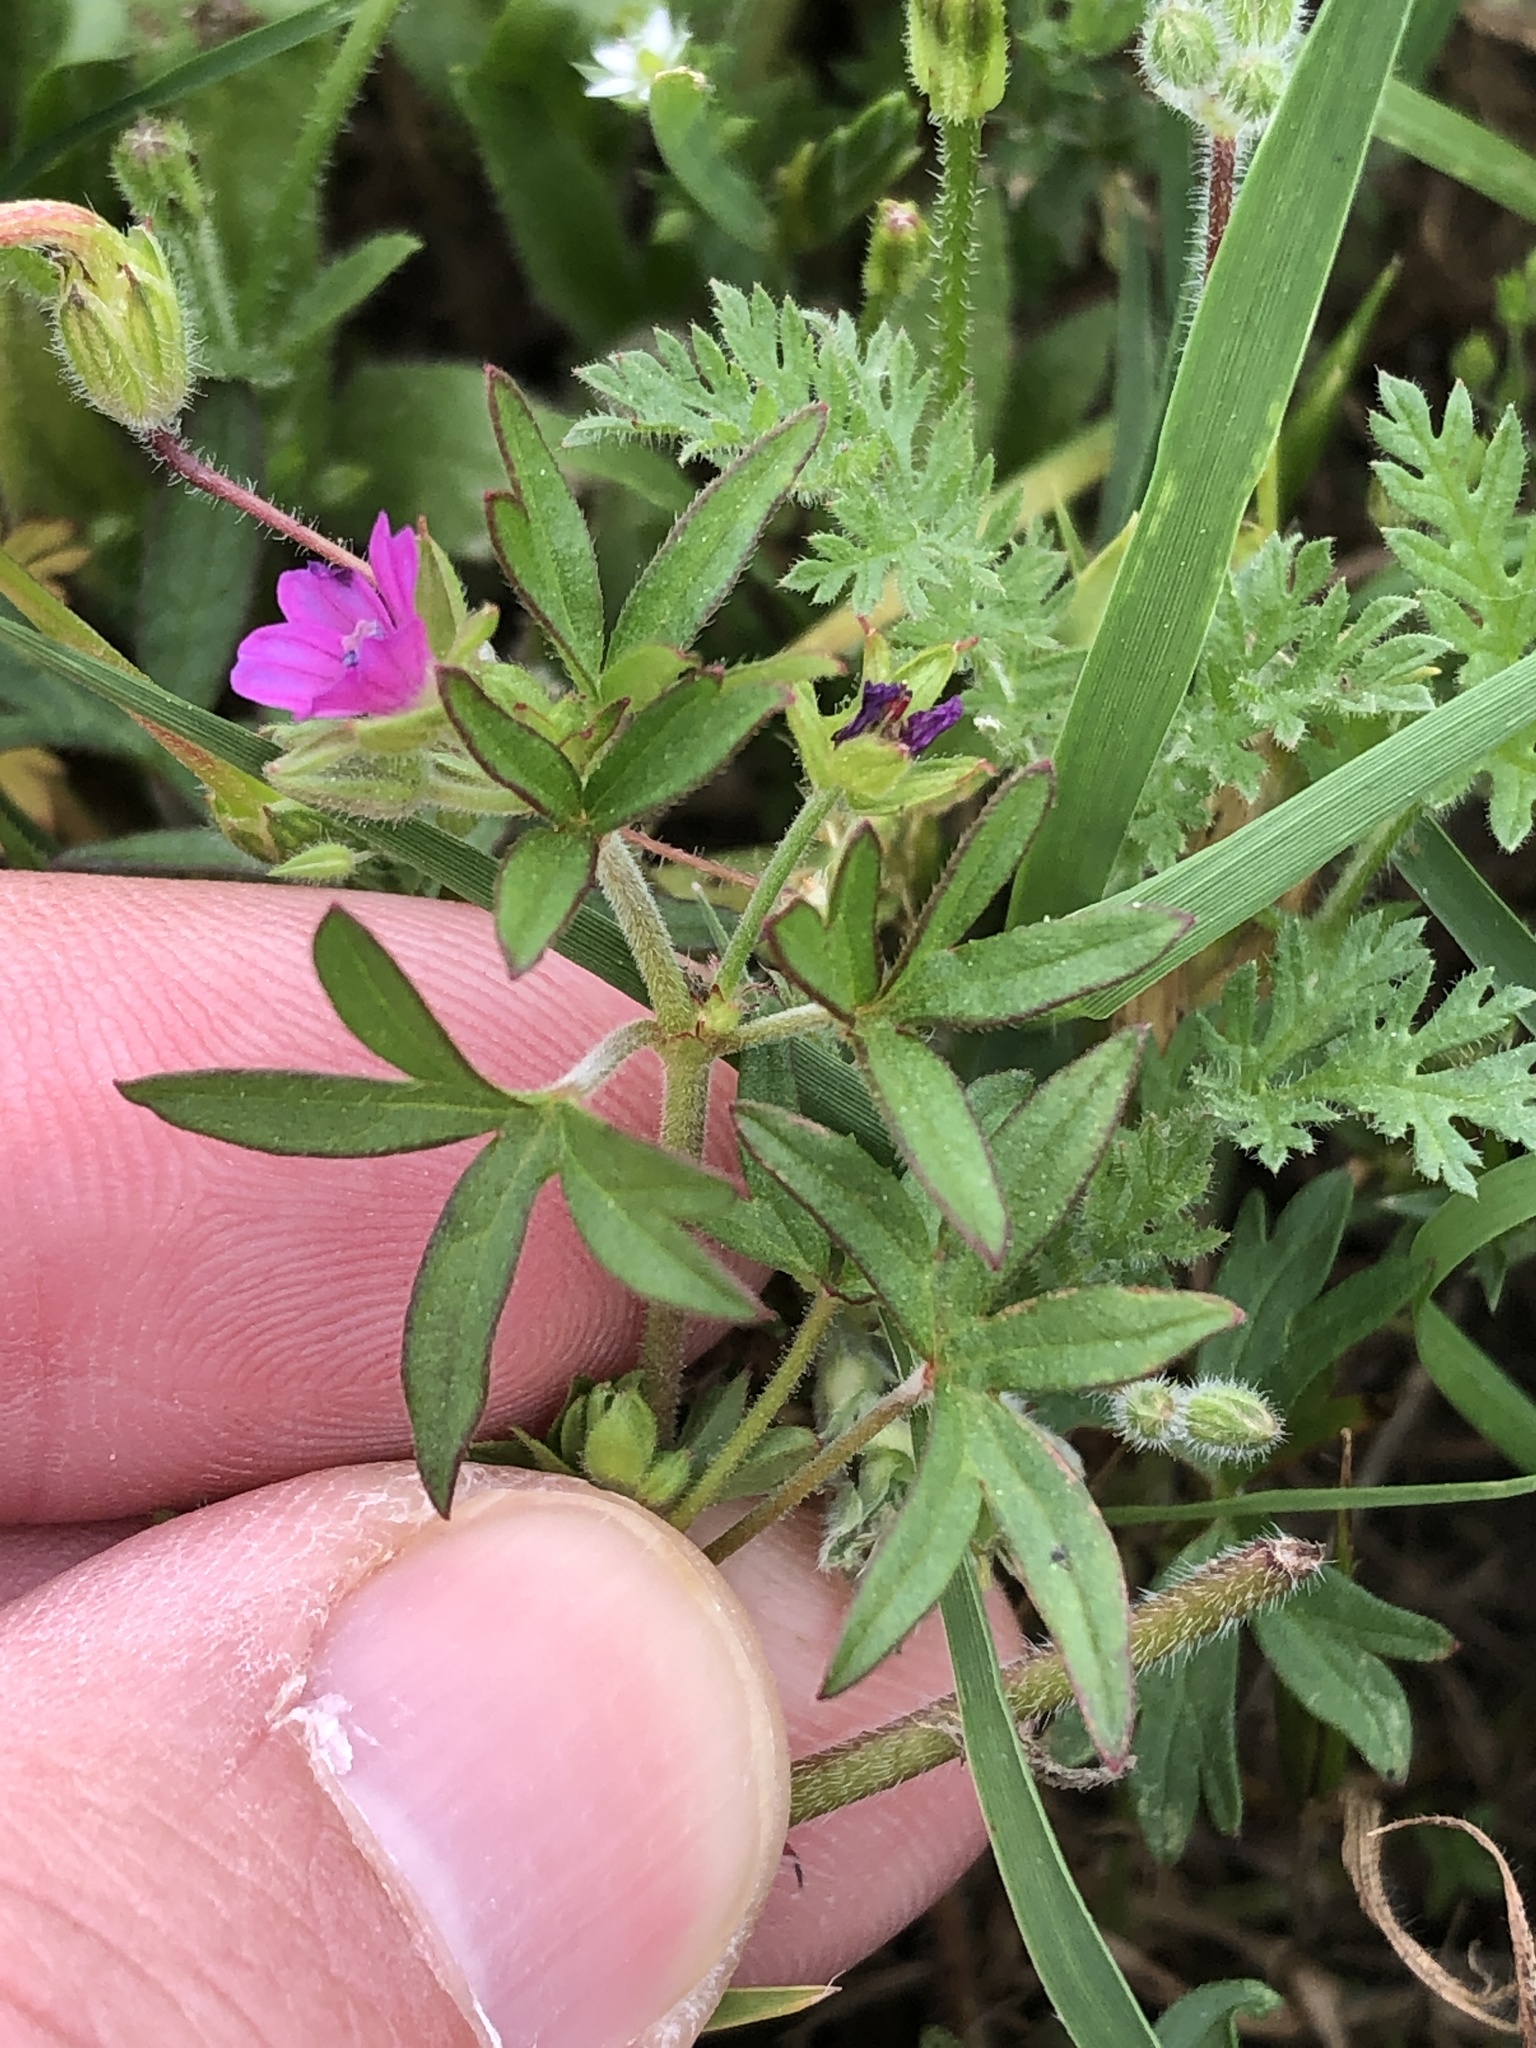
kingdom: Plantae
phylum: Tracheophyta
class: Magnoliopsida
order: Geraniales
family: Geraniaceae
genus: Geranium
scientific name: Geranium dissectum
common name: Cut-leaved crane's-bill
